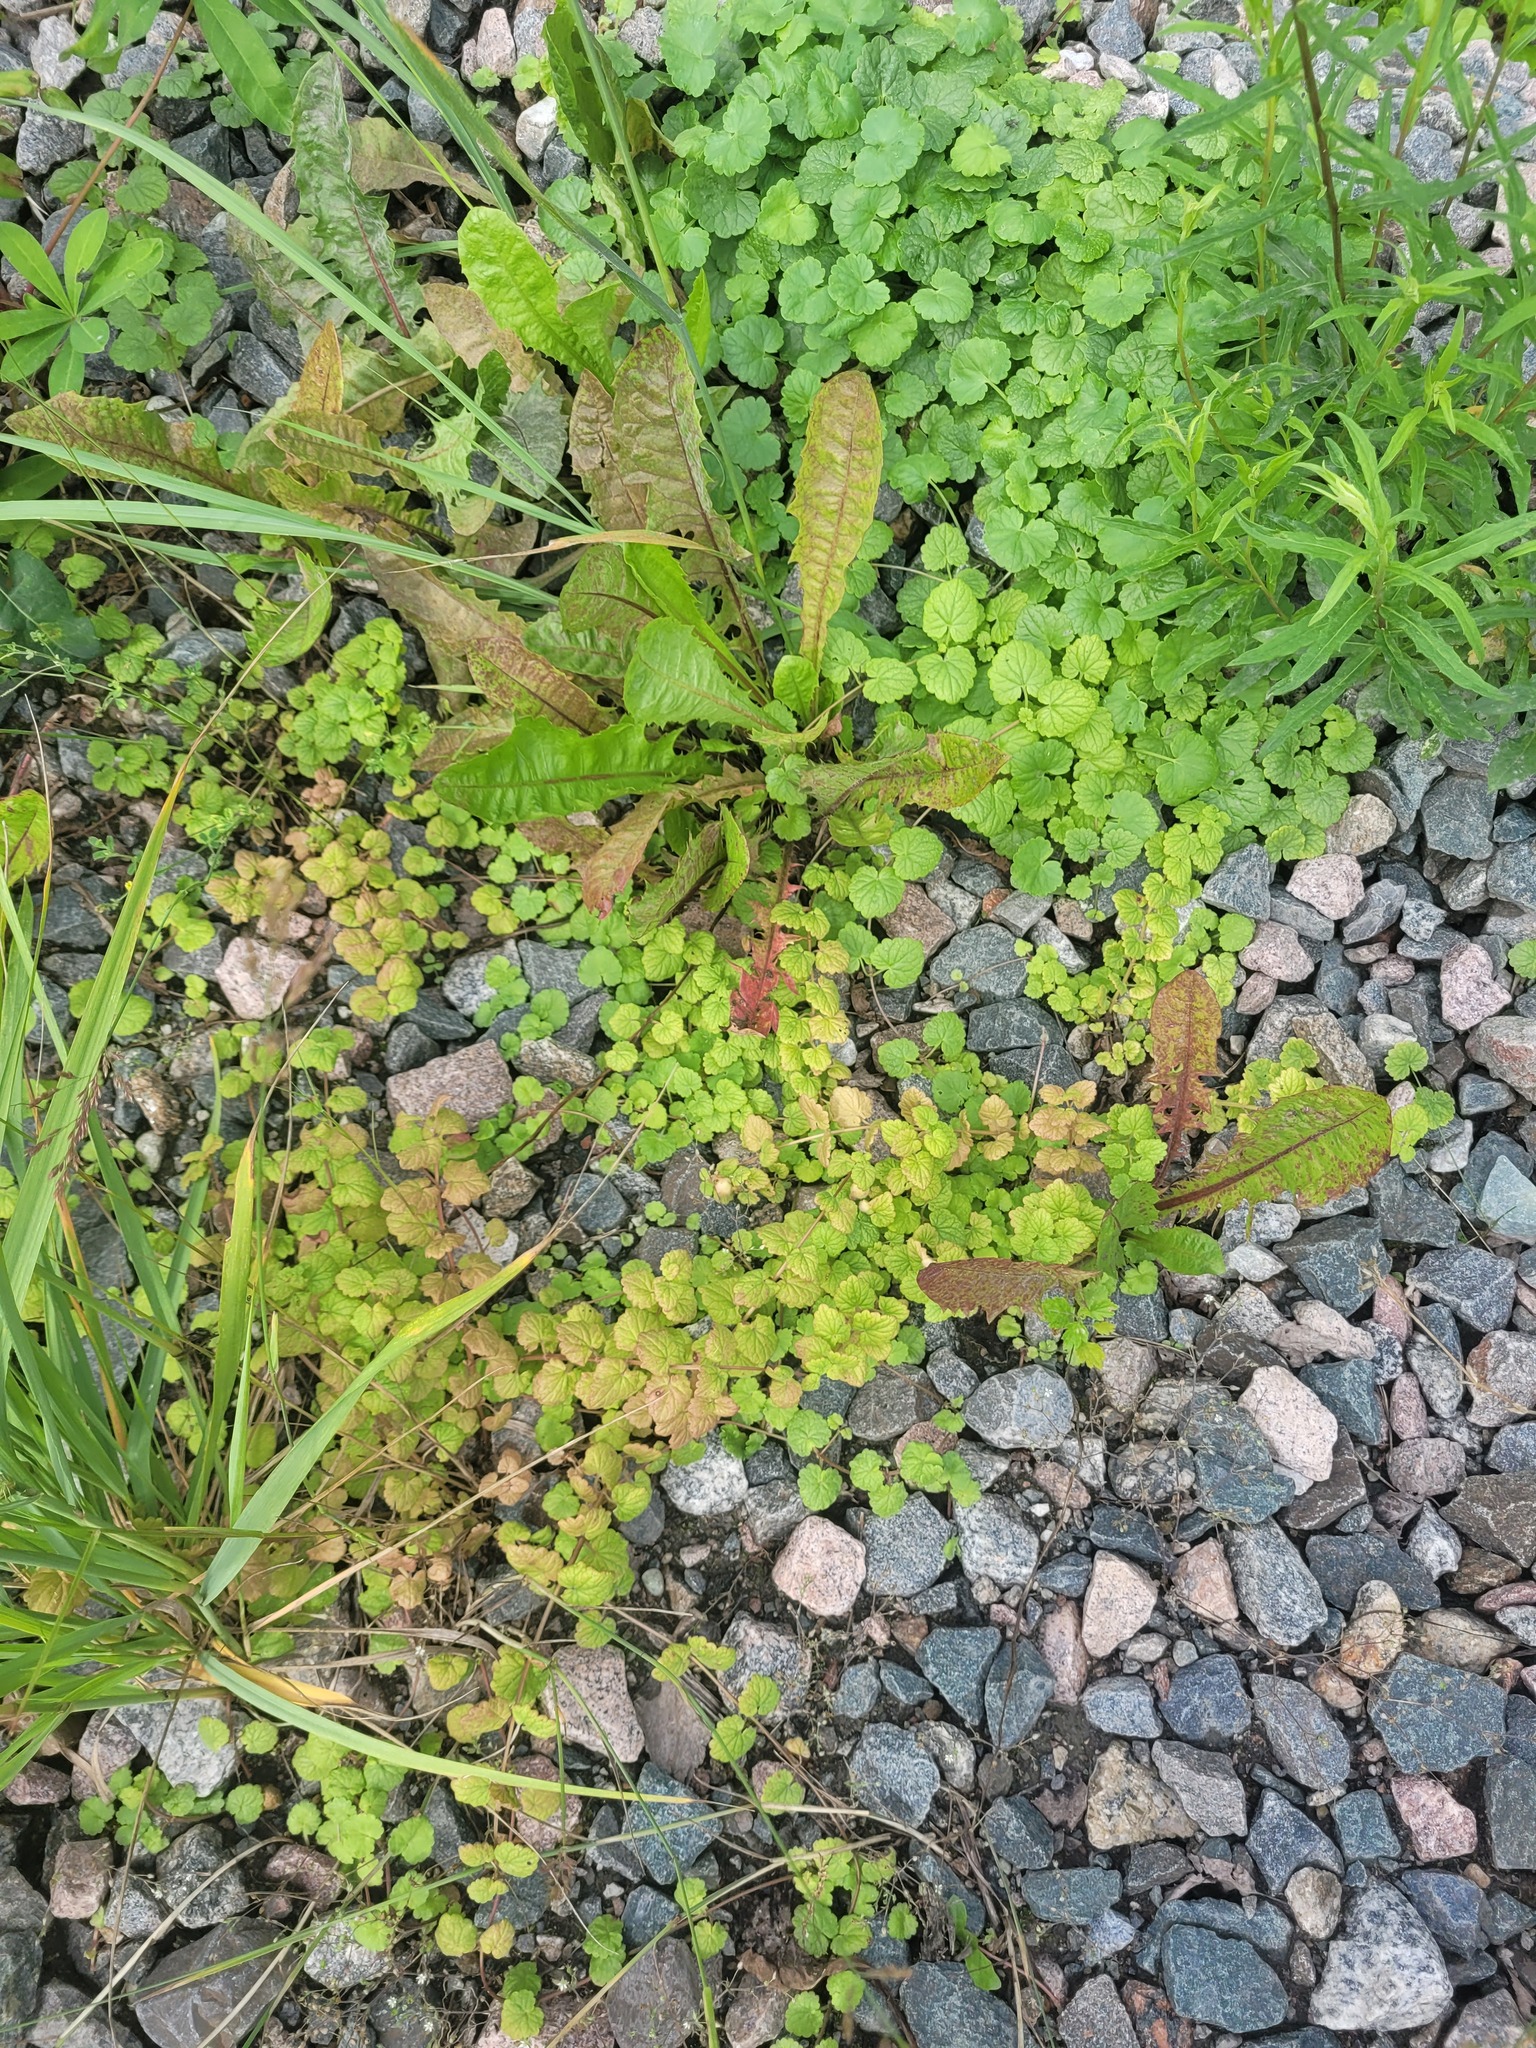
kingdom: Plantae
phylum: Tracheophyta
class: Magnoliopsida
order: Lamiales
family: Lamiaceae
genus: Glechoma
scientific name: Glechoma hederacea
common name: Ground ivy
